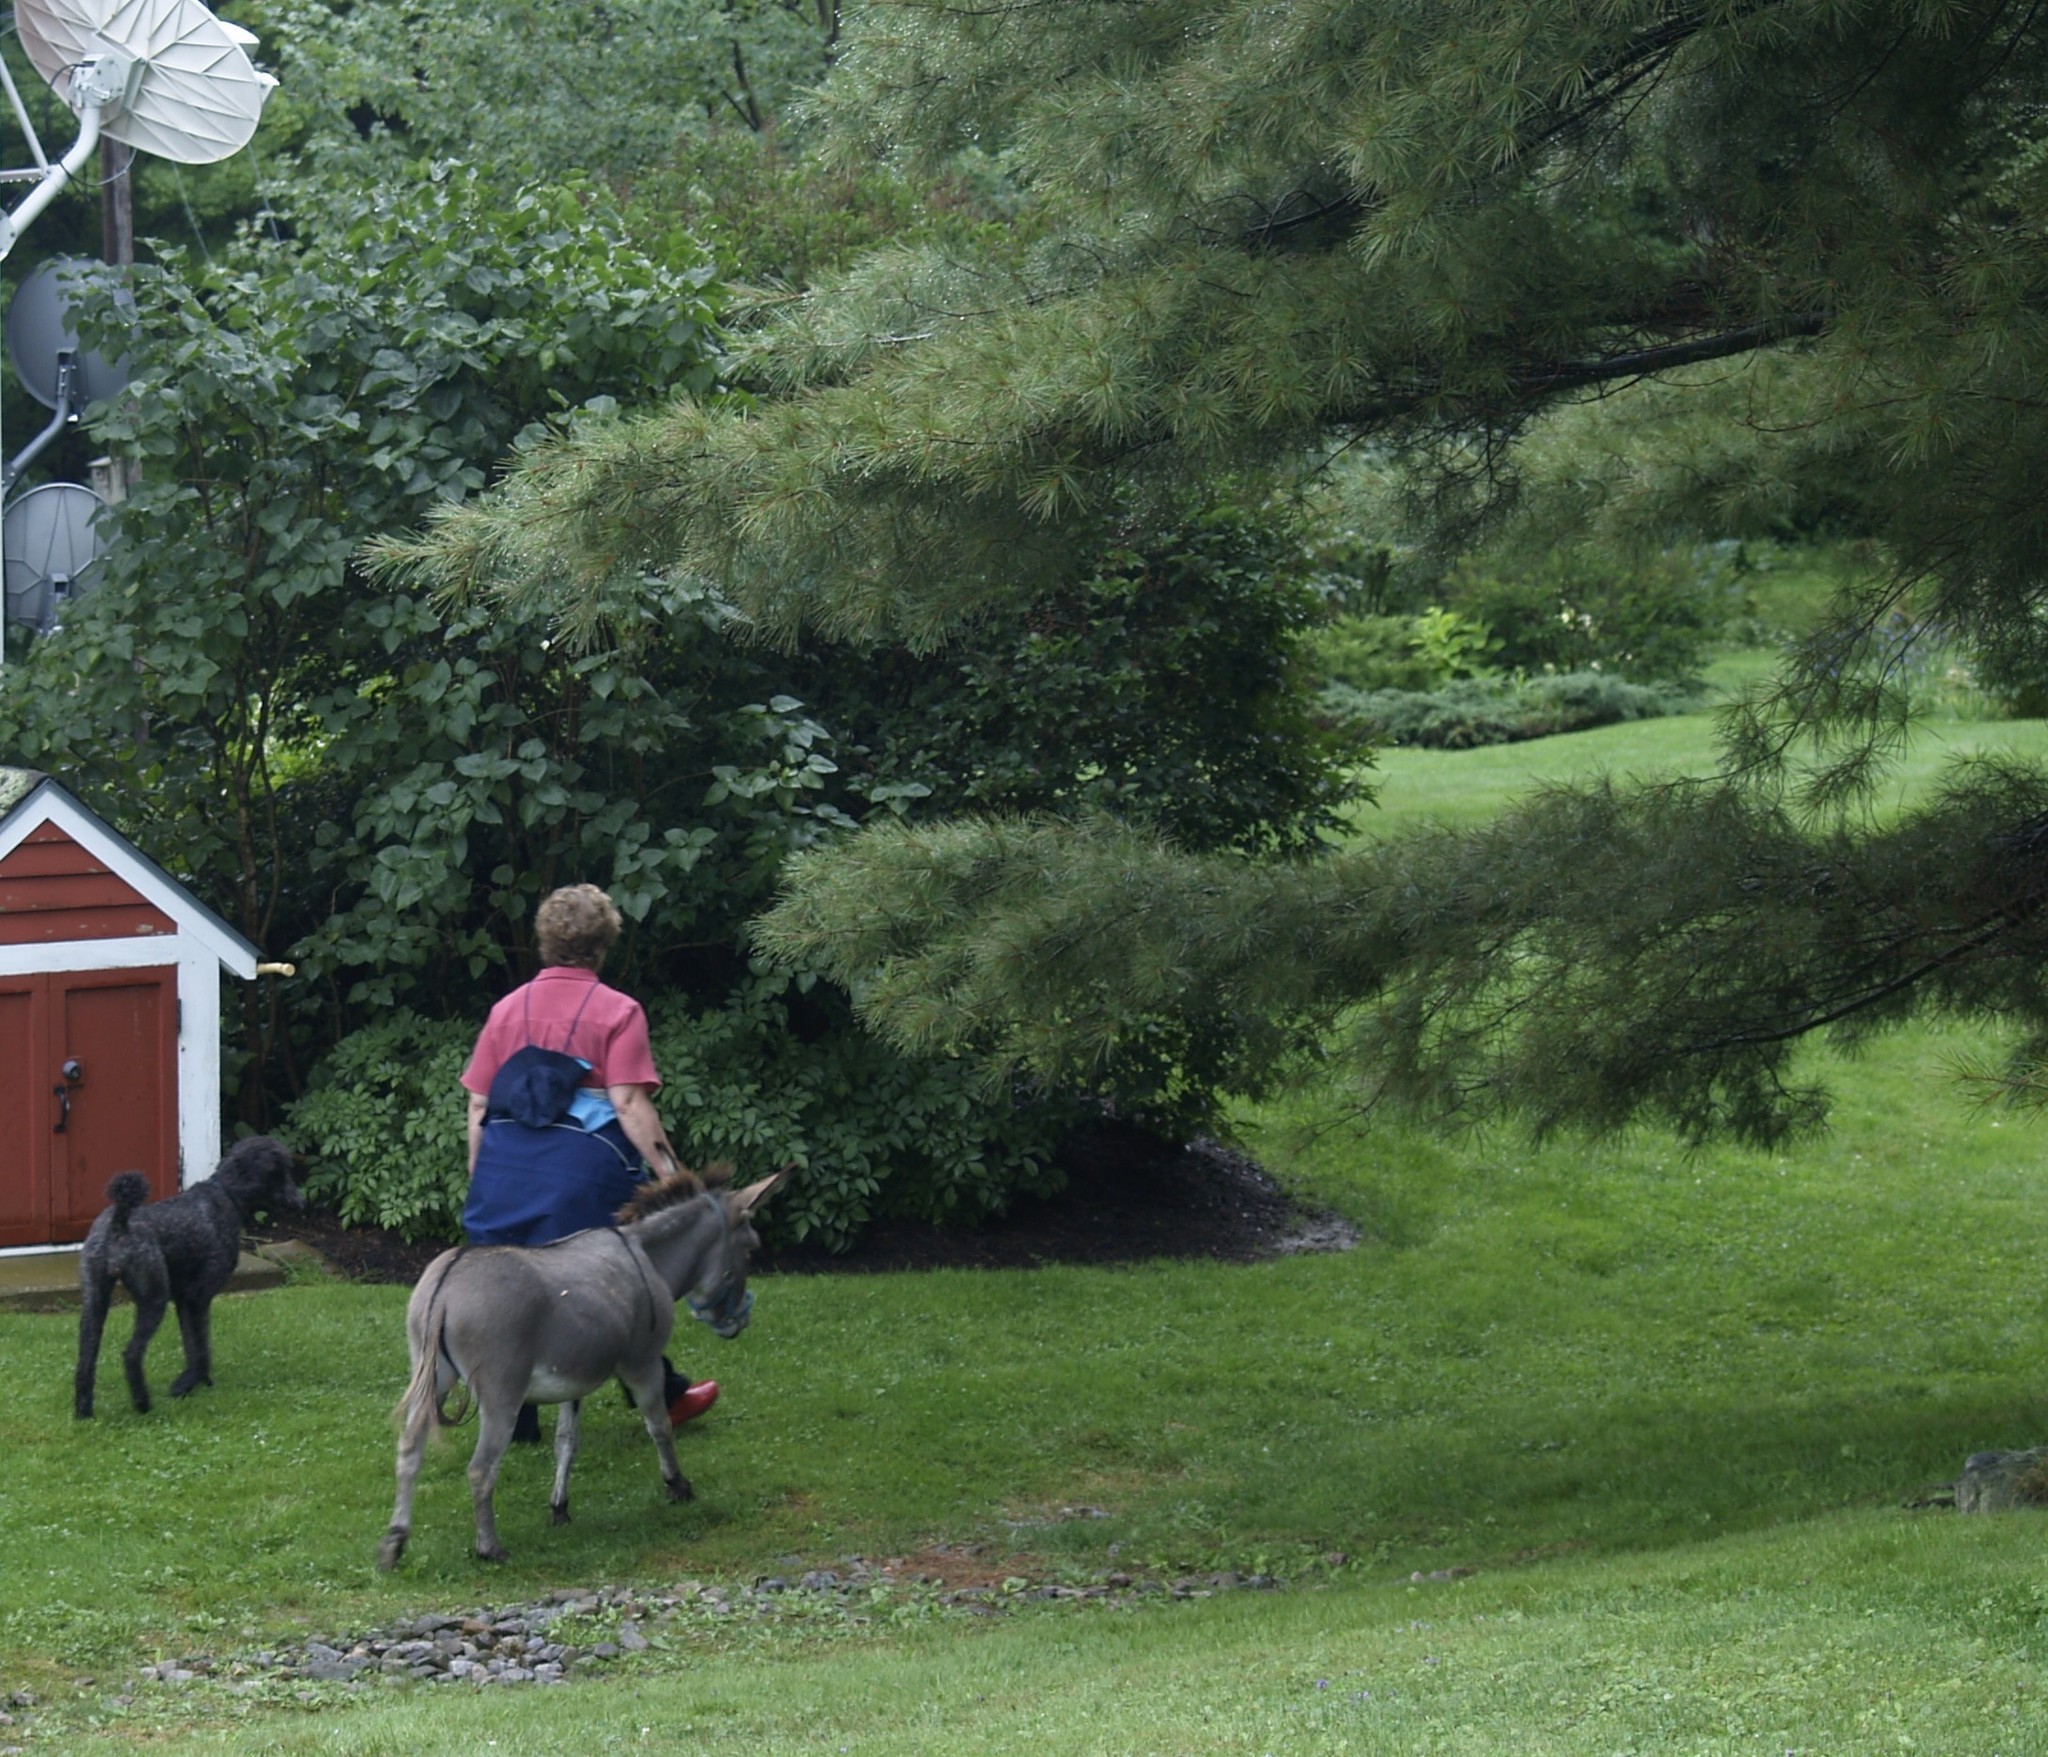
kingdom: Plantae
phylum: Tracheophyta
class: Pinopsida
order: Pinales
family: Pinaceae
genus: Pinus
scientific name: Pinus strobus
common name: Weymouth pine
